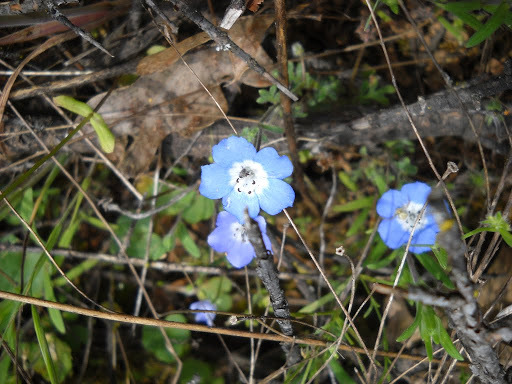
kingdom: Plantae
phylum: Tracheophyta
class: Magnoliopsida
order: Boraginales
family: Hydrophyllaceae
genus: Nemophila
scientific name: Nemophila menziesii
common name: Baby's-blue-eyes
